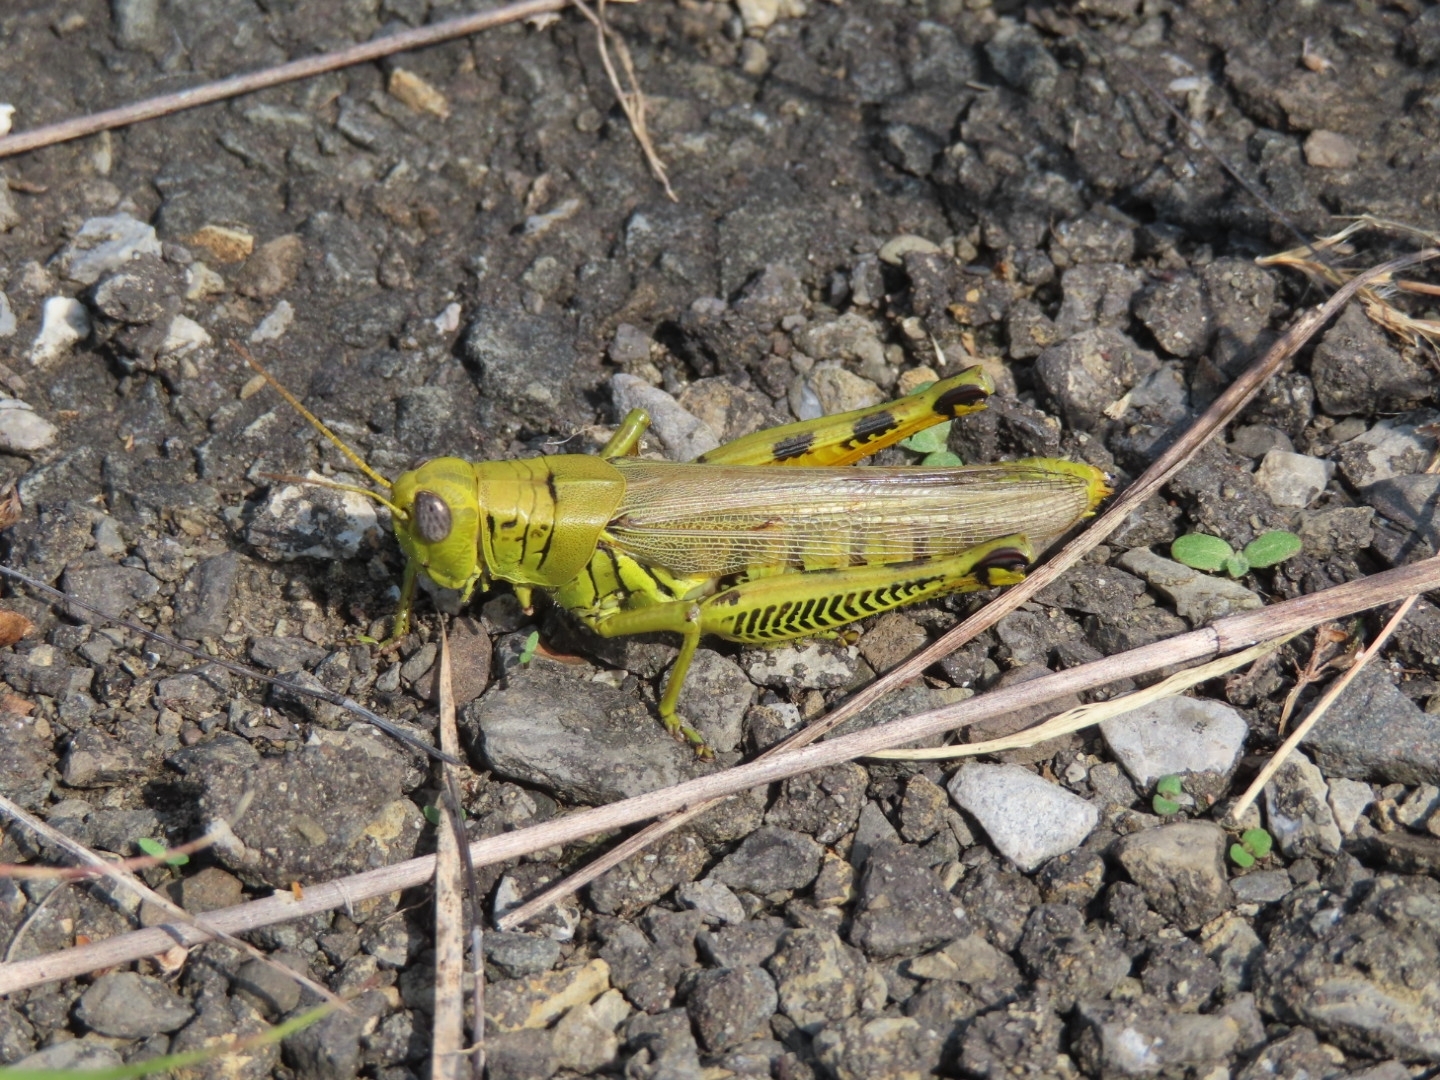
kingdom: Animalia
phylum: Arthropoda
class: Insecta
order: Orthoptera
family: Acrididae
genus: Melanoplus
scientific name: Melanoplus differentialis
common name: Differential grasshopper
